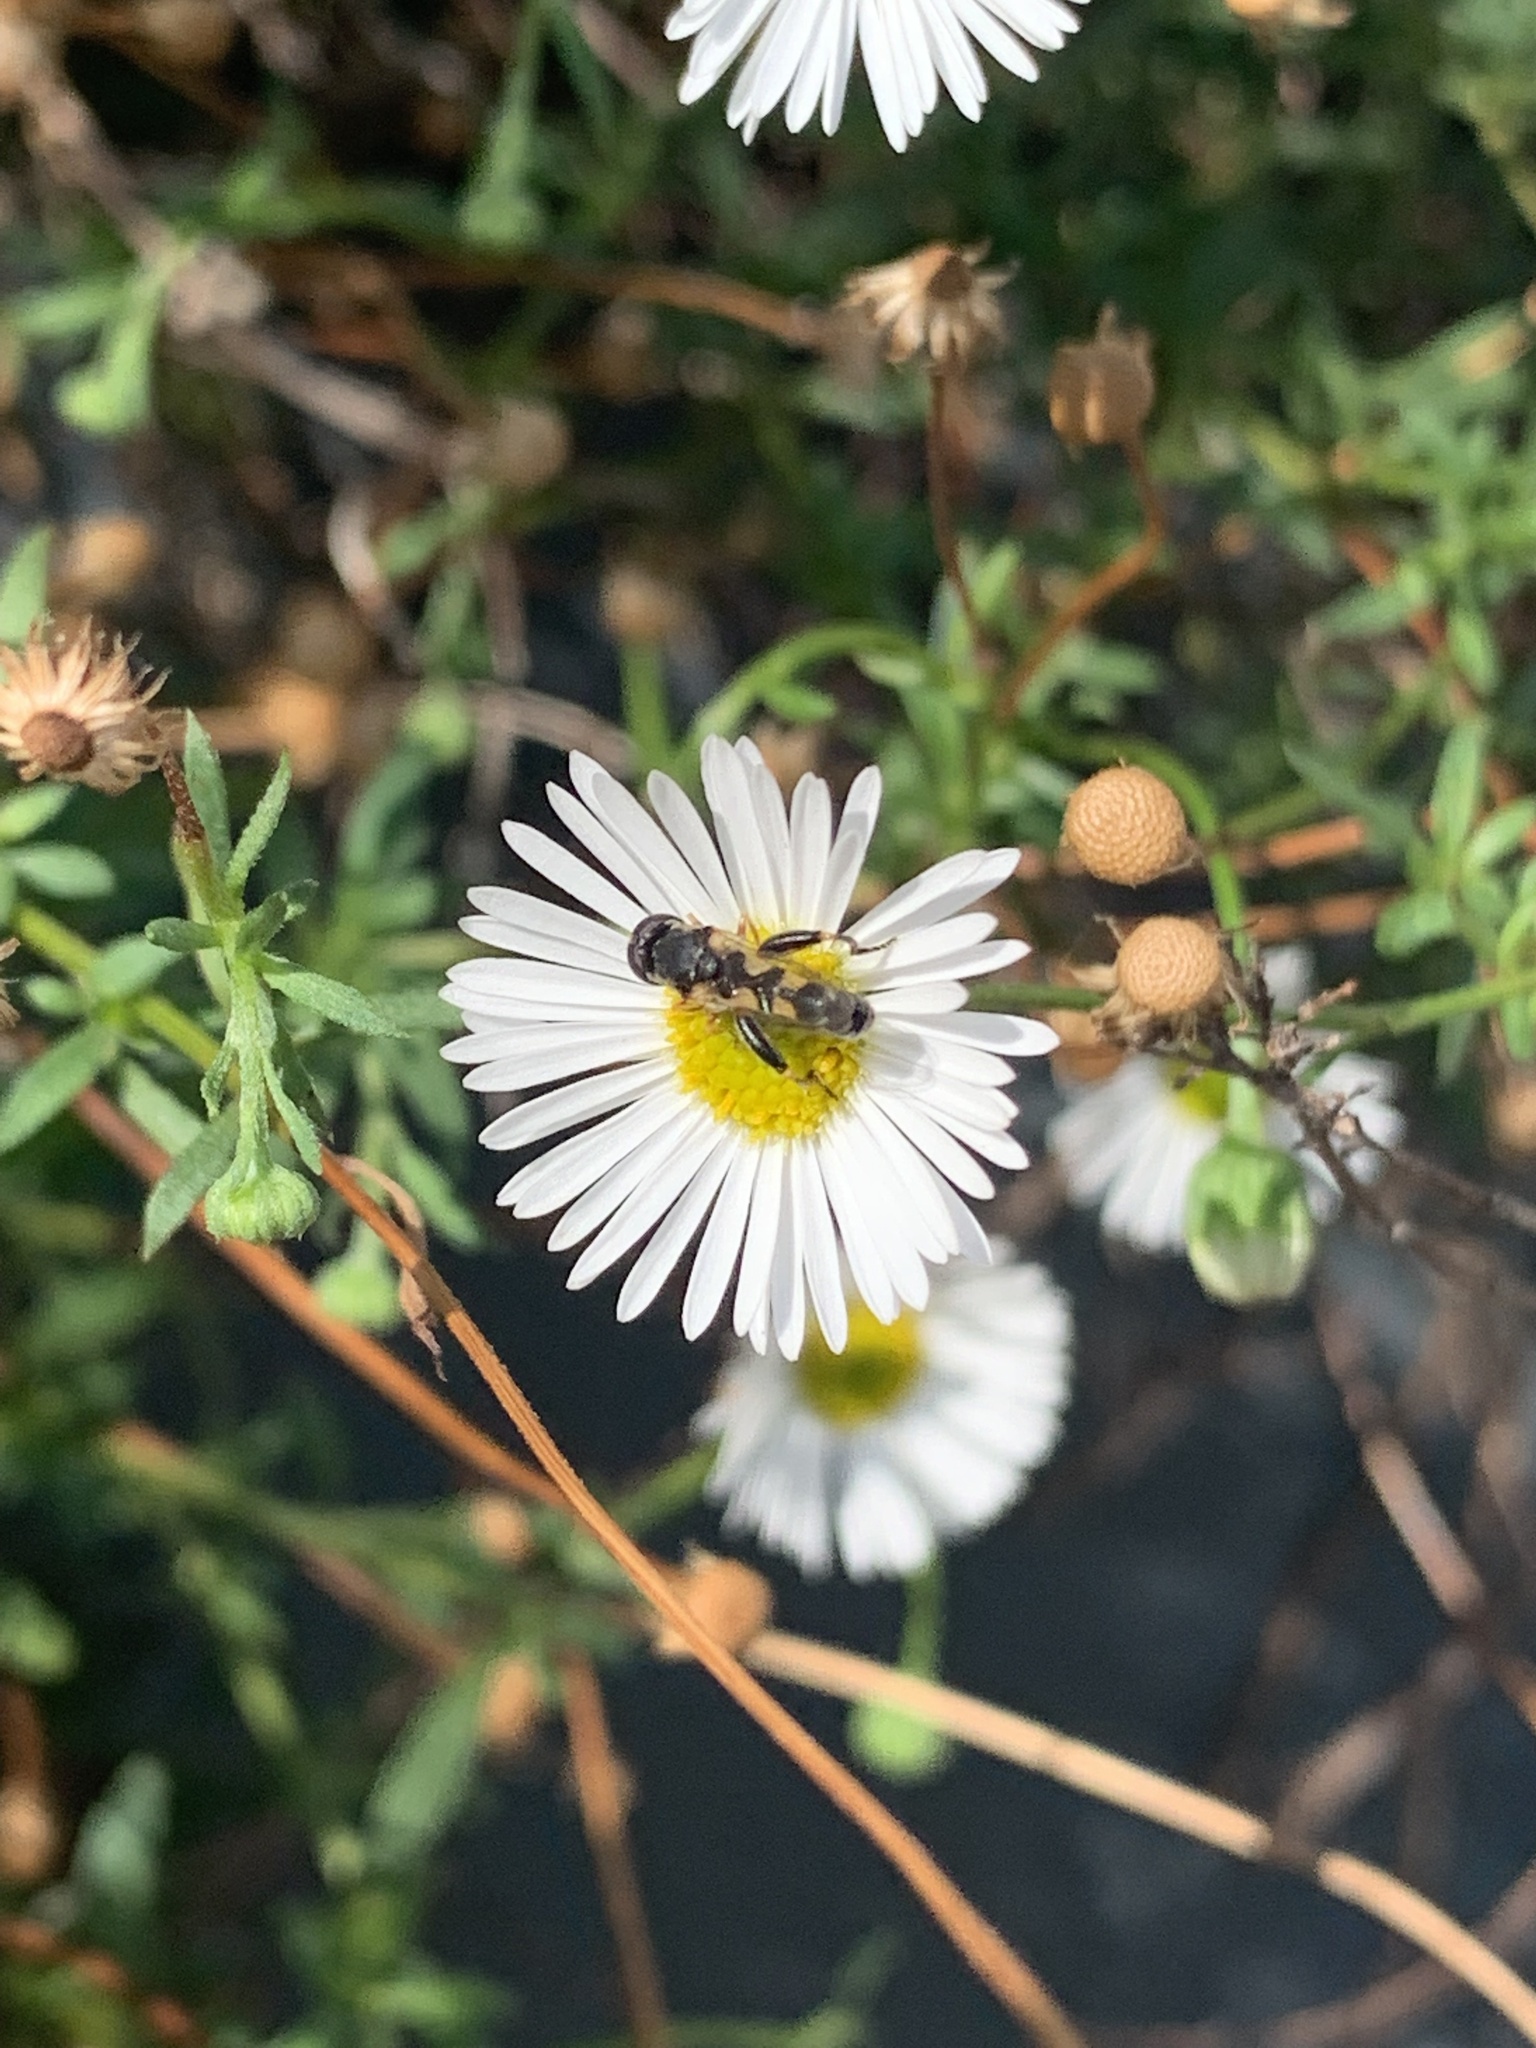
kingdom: Animalia
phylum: Arthropoda
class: Insecta
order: Diptera
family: Syrphidae
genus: Syritta
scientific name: Syritta pipiens
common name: Hover fly
